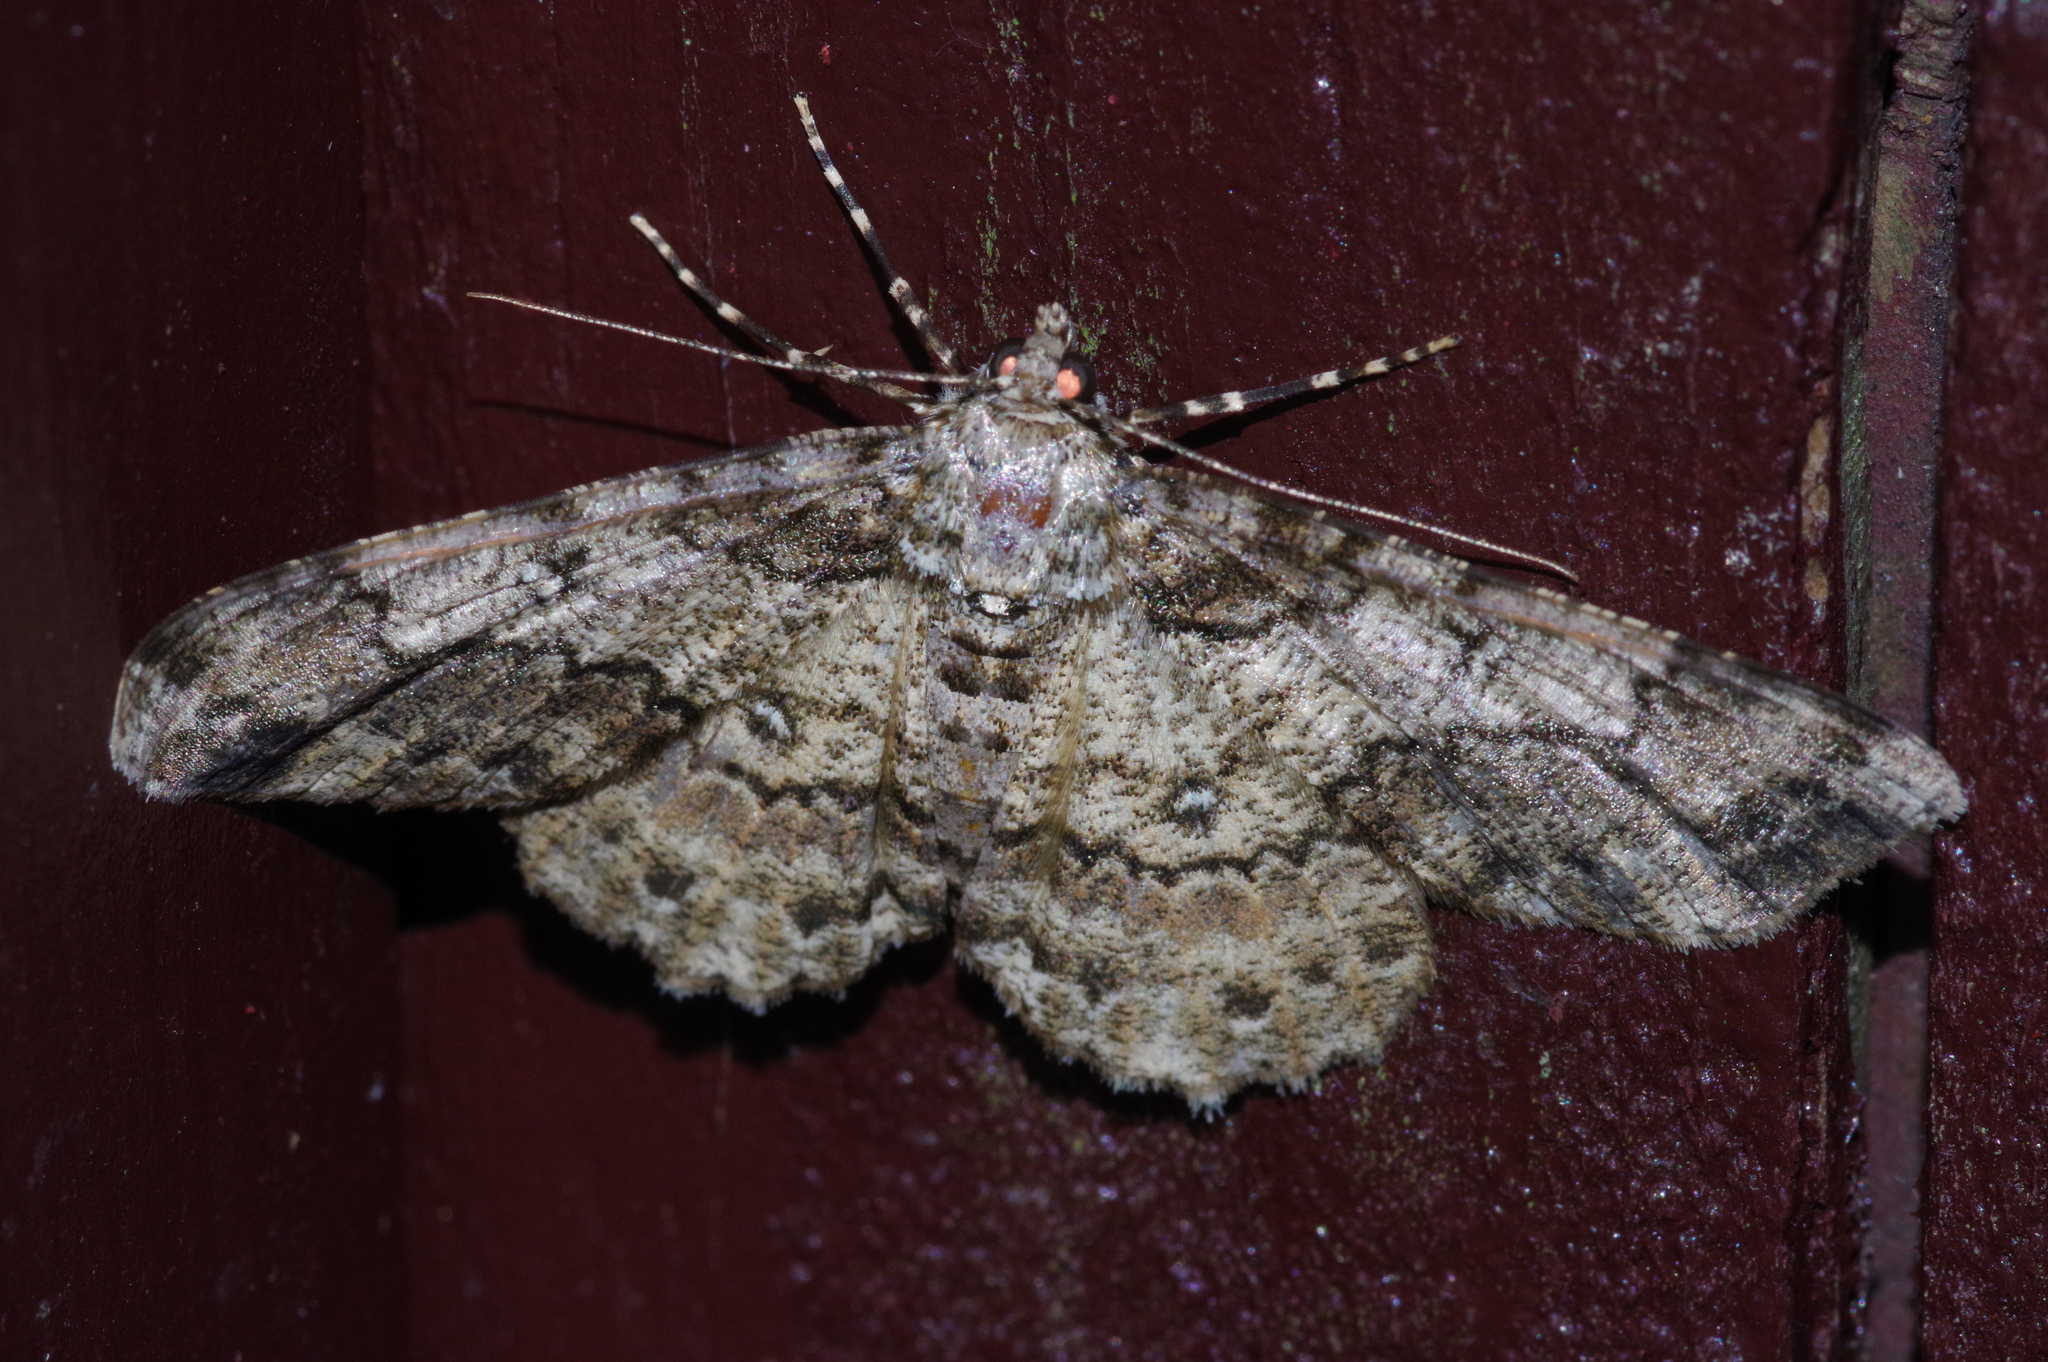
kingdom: Animalia
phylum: Arthropoda
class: Insecta
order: Lepidoptera
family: Geometridae
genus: Cleora
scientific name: Cleora minutaria
